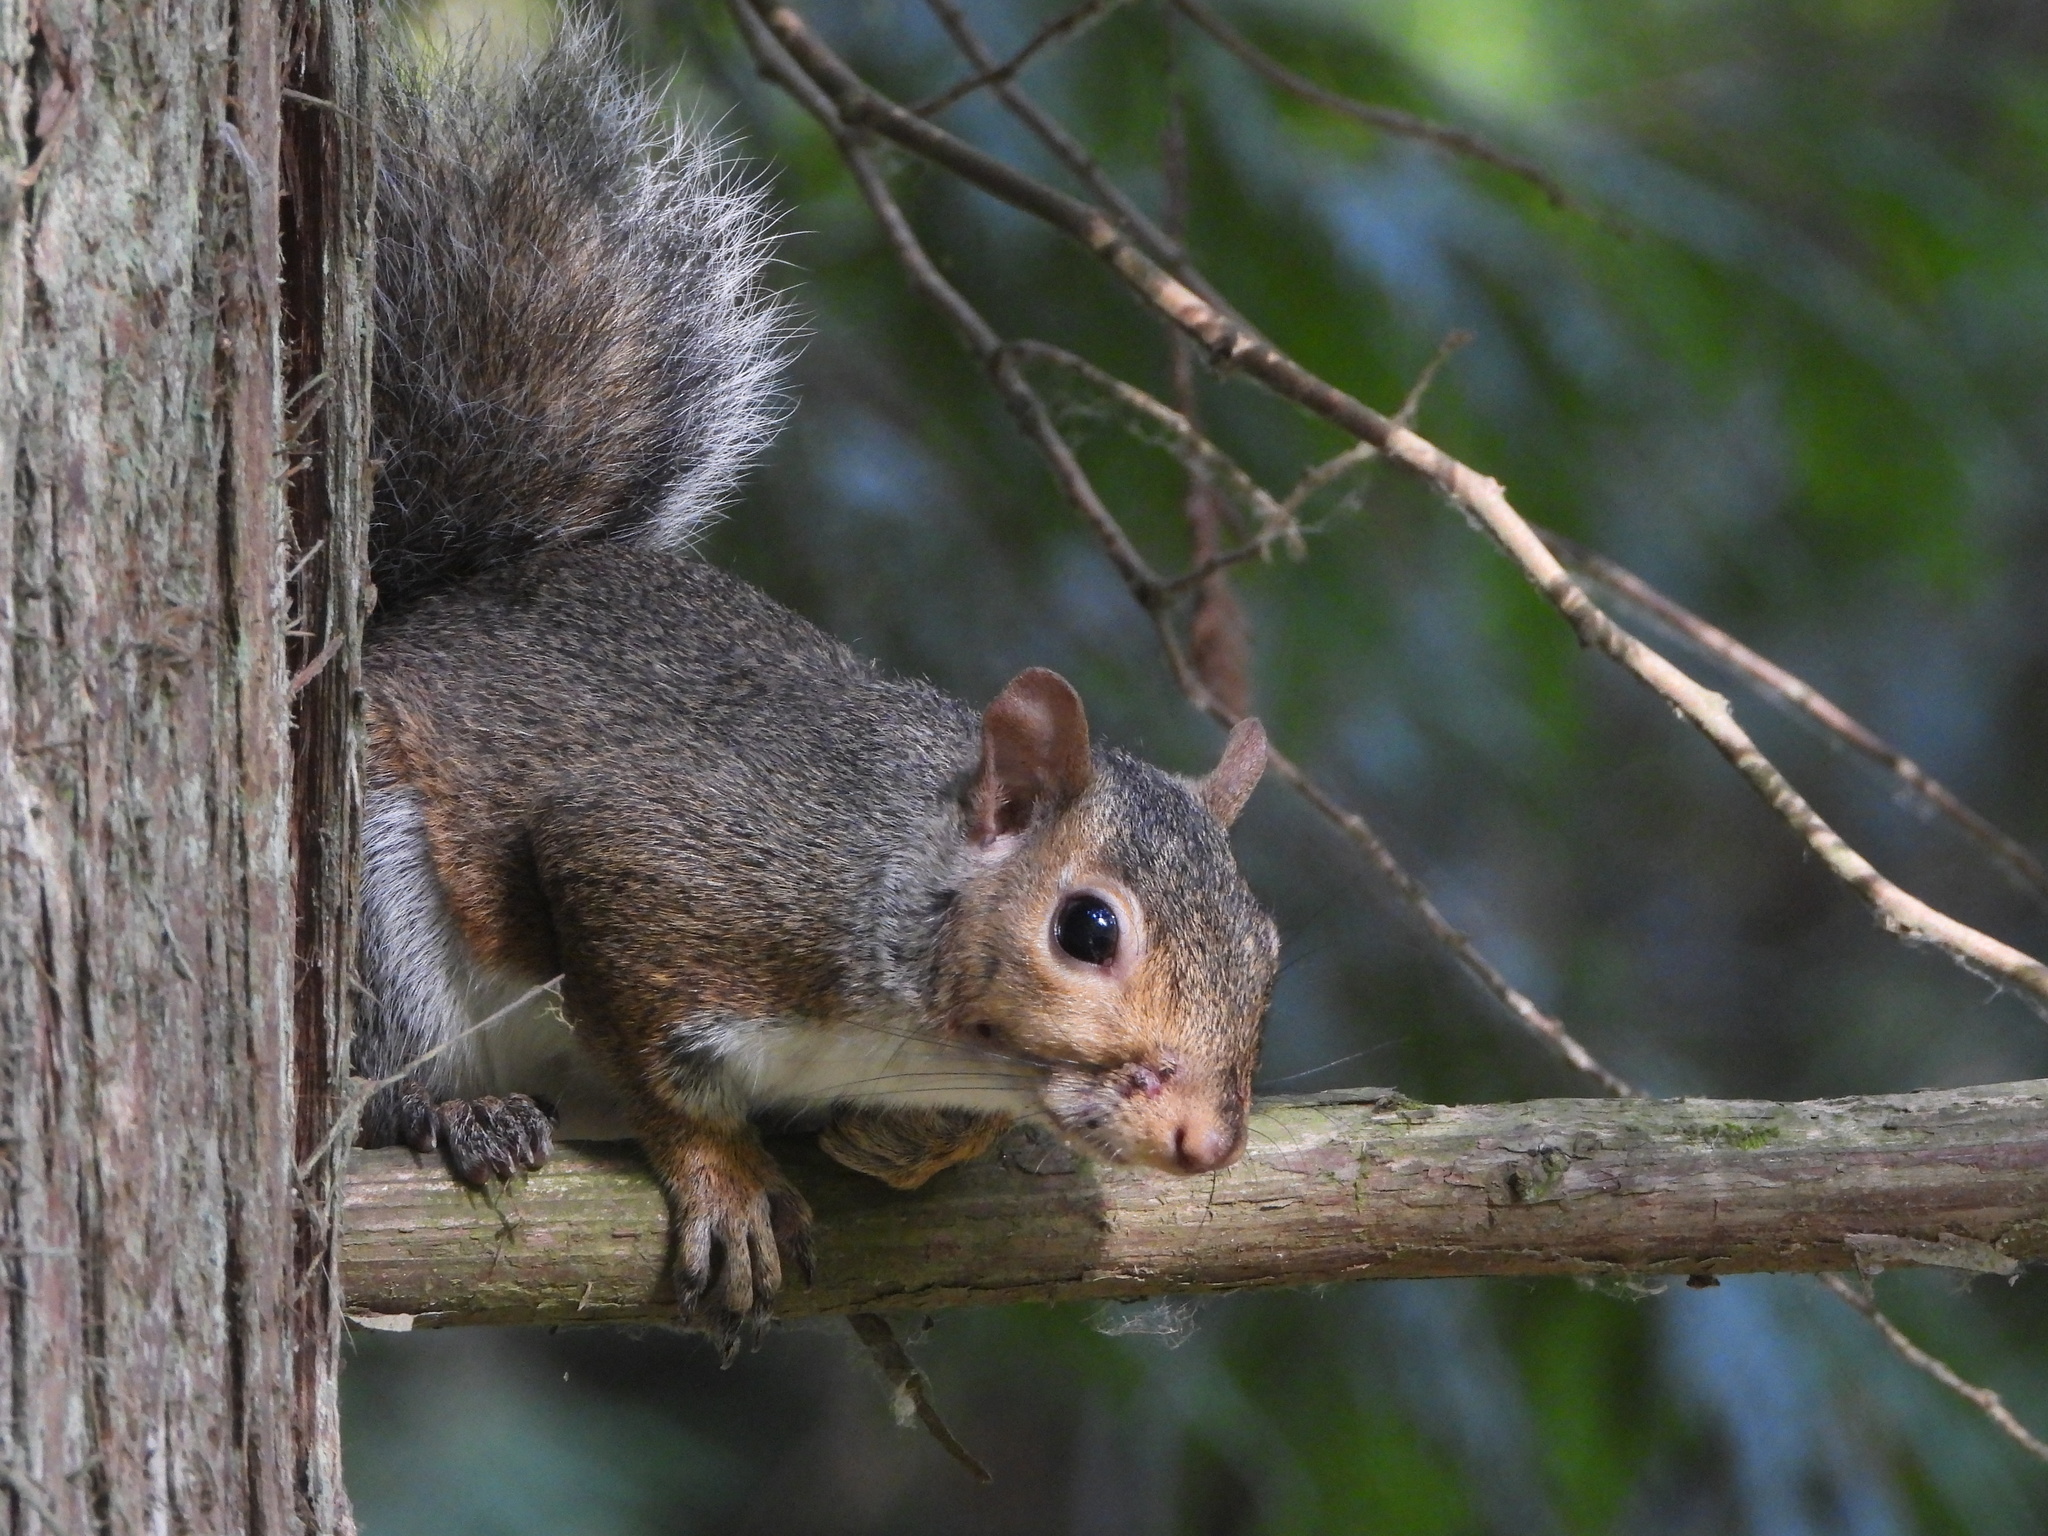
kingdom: Animalia
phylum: Chordata
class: Mammalia
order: Rodentia
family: Sciuridae
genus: Sciurus
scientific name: Sciurus carolinensis
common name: Eastern gray squirrel
